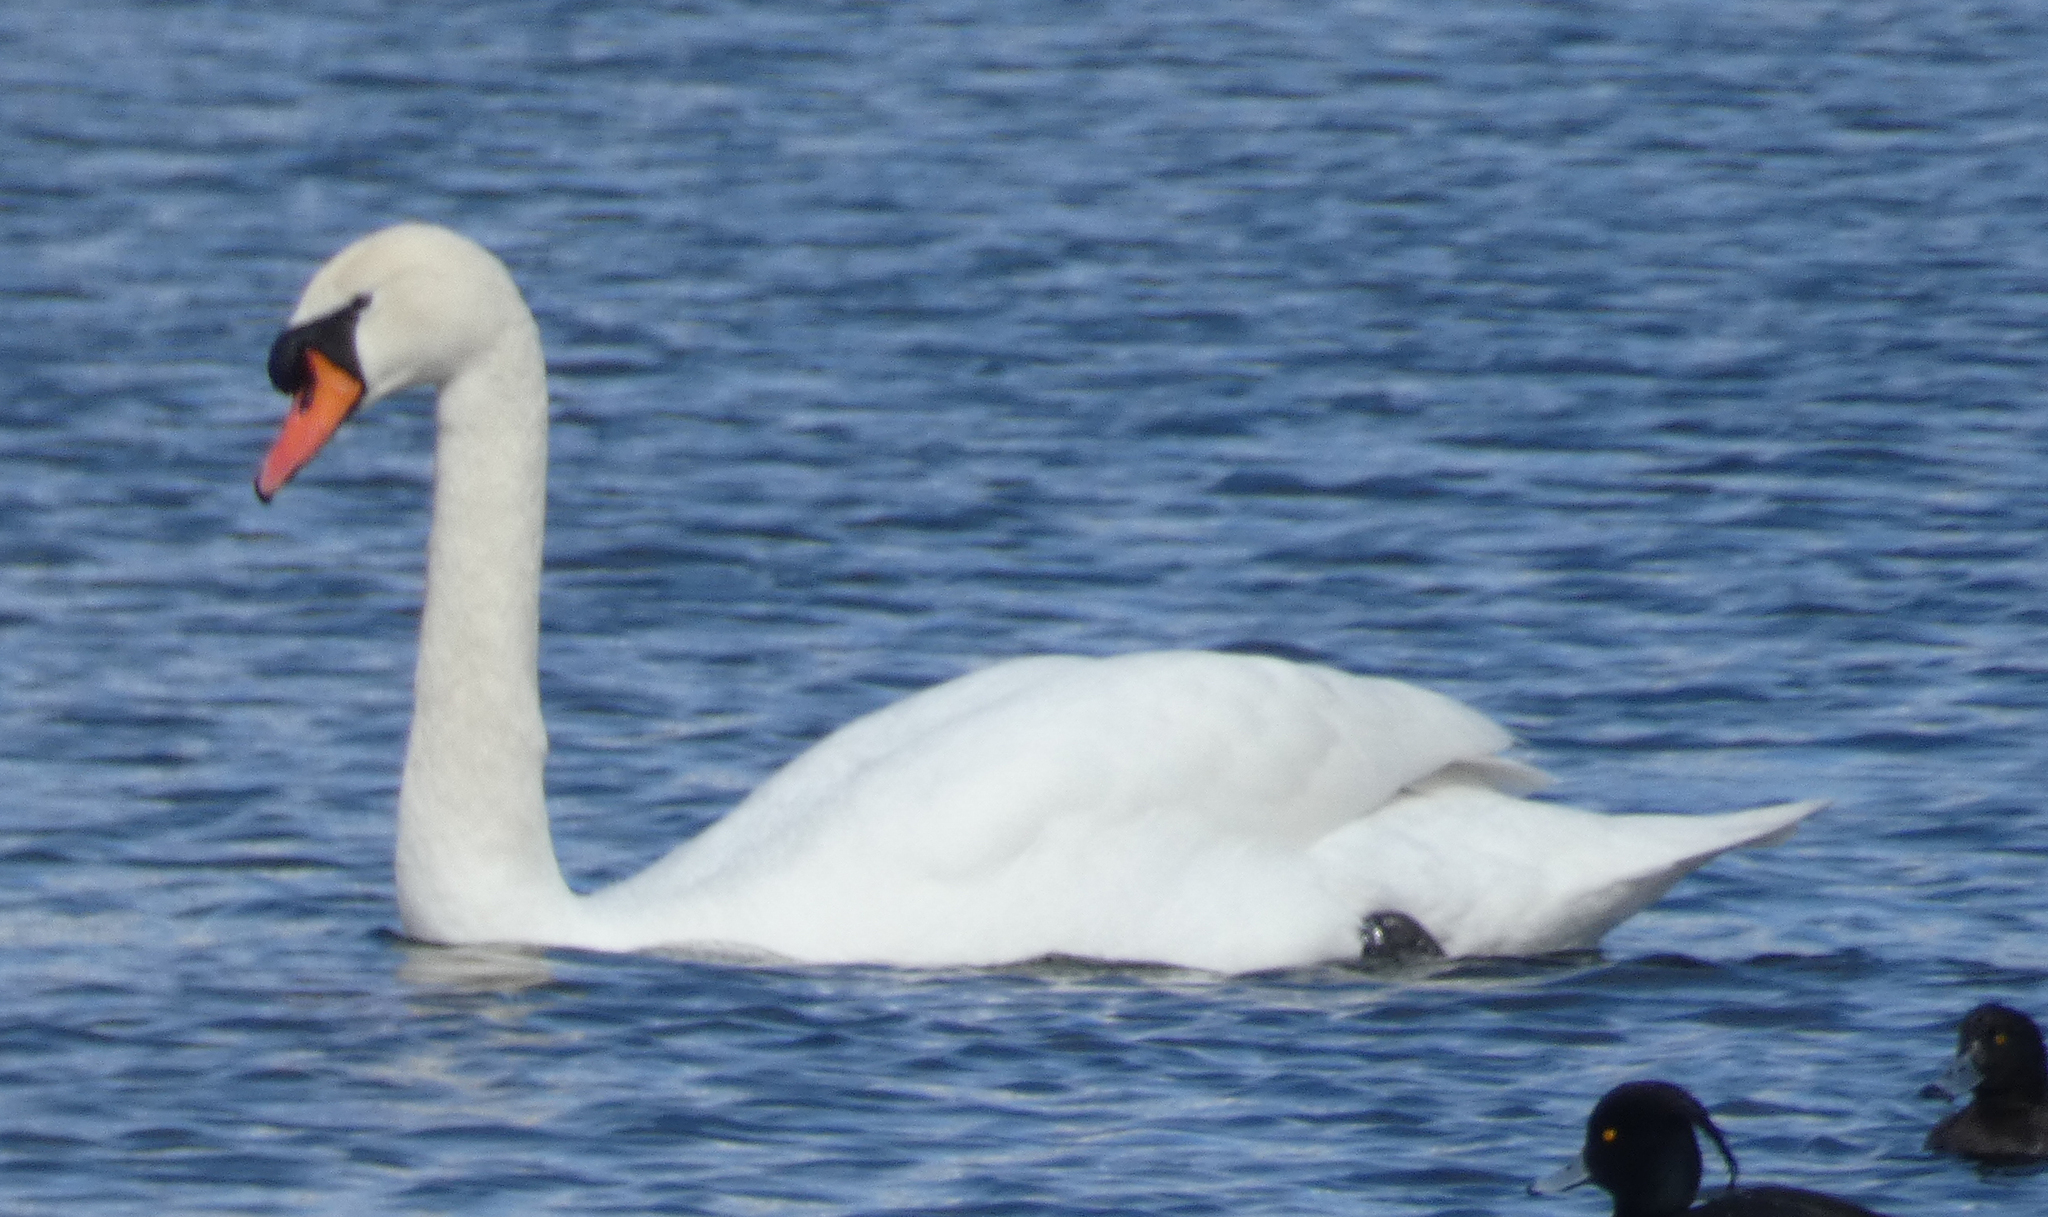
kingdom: Animalia
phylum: Chordata
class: Aves
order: Anseriformes
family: Anatidae
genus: Cygnus
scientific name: Cygnus olor
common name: Mute swan
